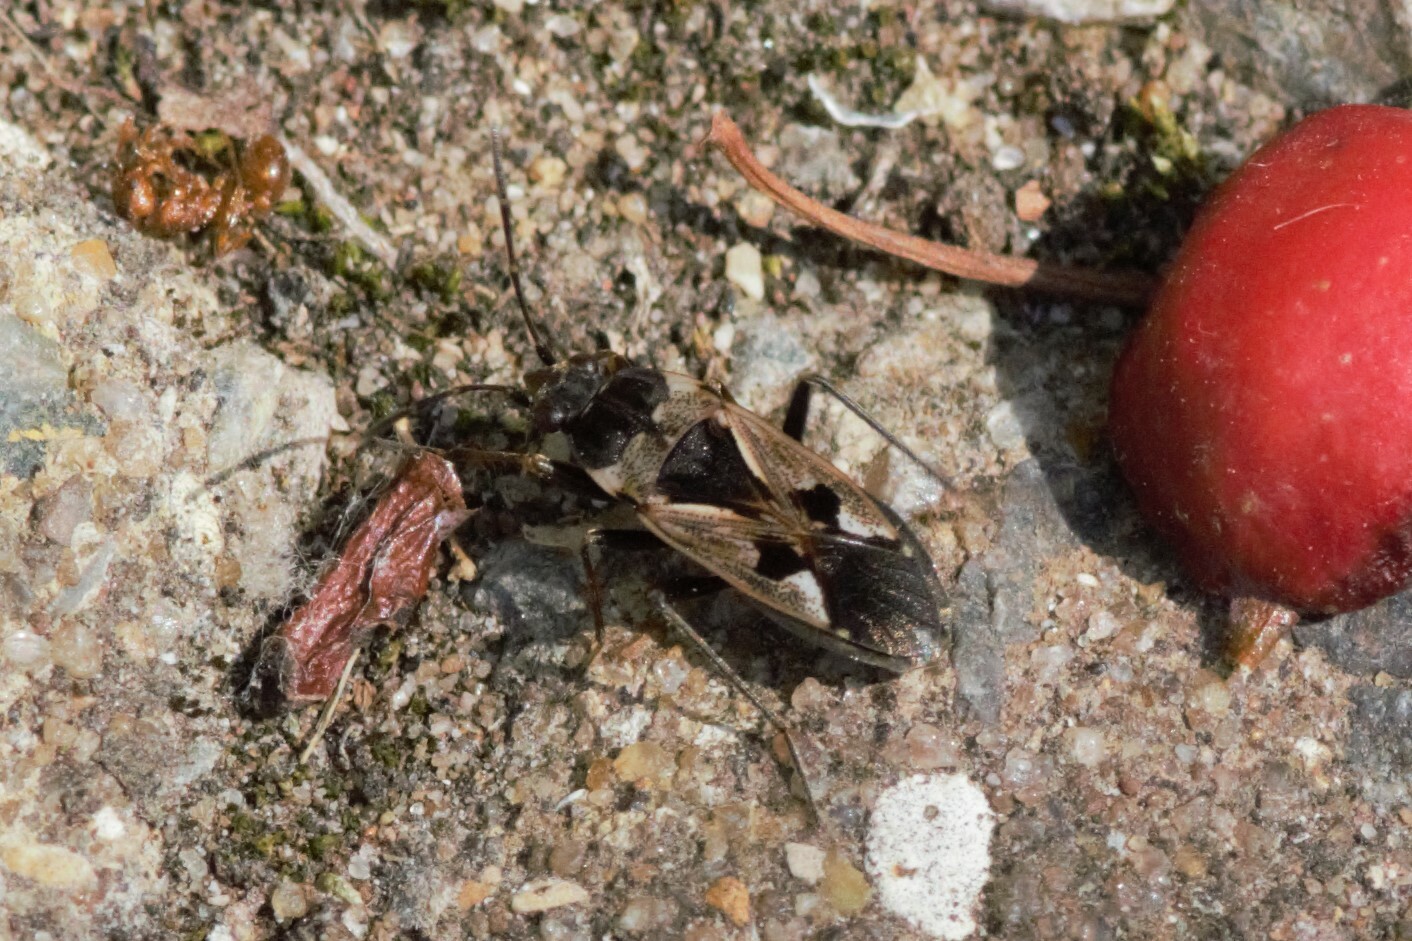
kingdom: Animalia
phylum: Arthropoda
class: Insecta
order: Hemiptera
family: Rhyparochromidae
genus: Rhyparochromus
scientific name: Rhyparochromus vulgaris
